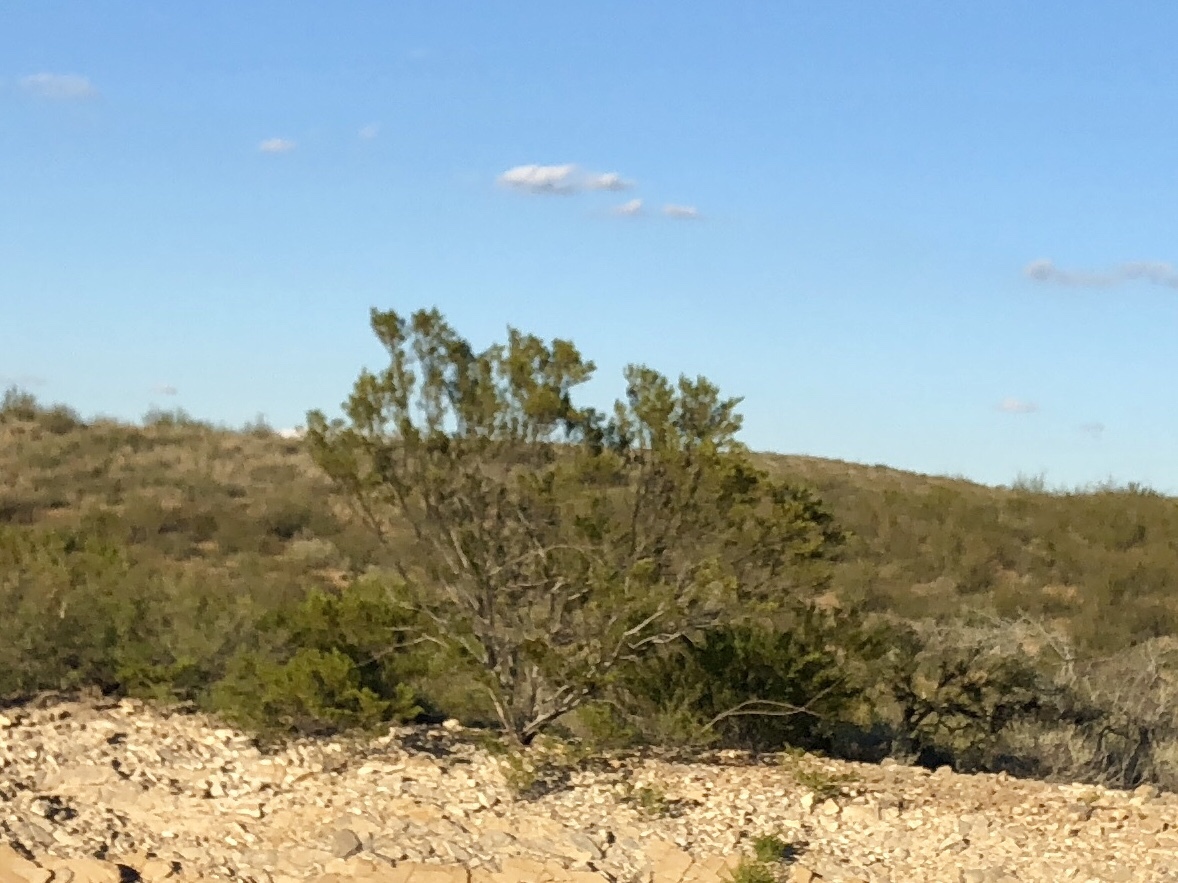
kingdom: Plantae
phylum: Tracheophyta
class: Magnoliopsida
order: Zygophyllales
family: Zygophyllaceae
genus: Larrea
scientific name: Larrea tridentata
